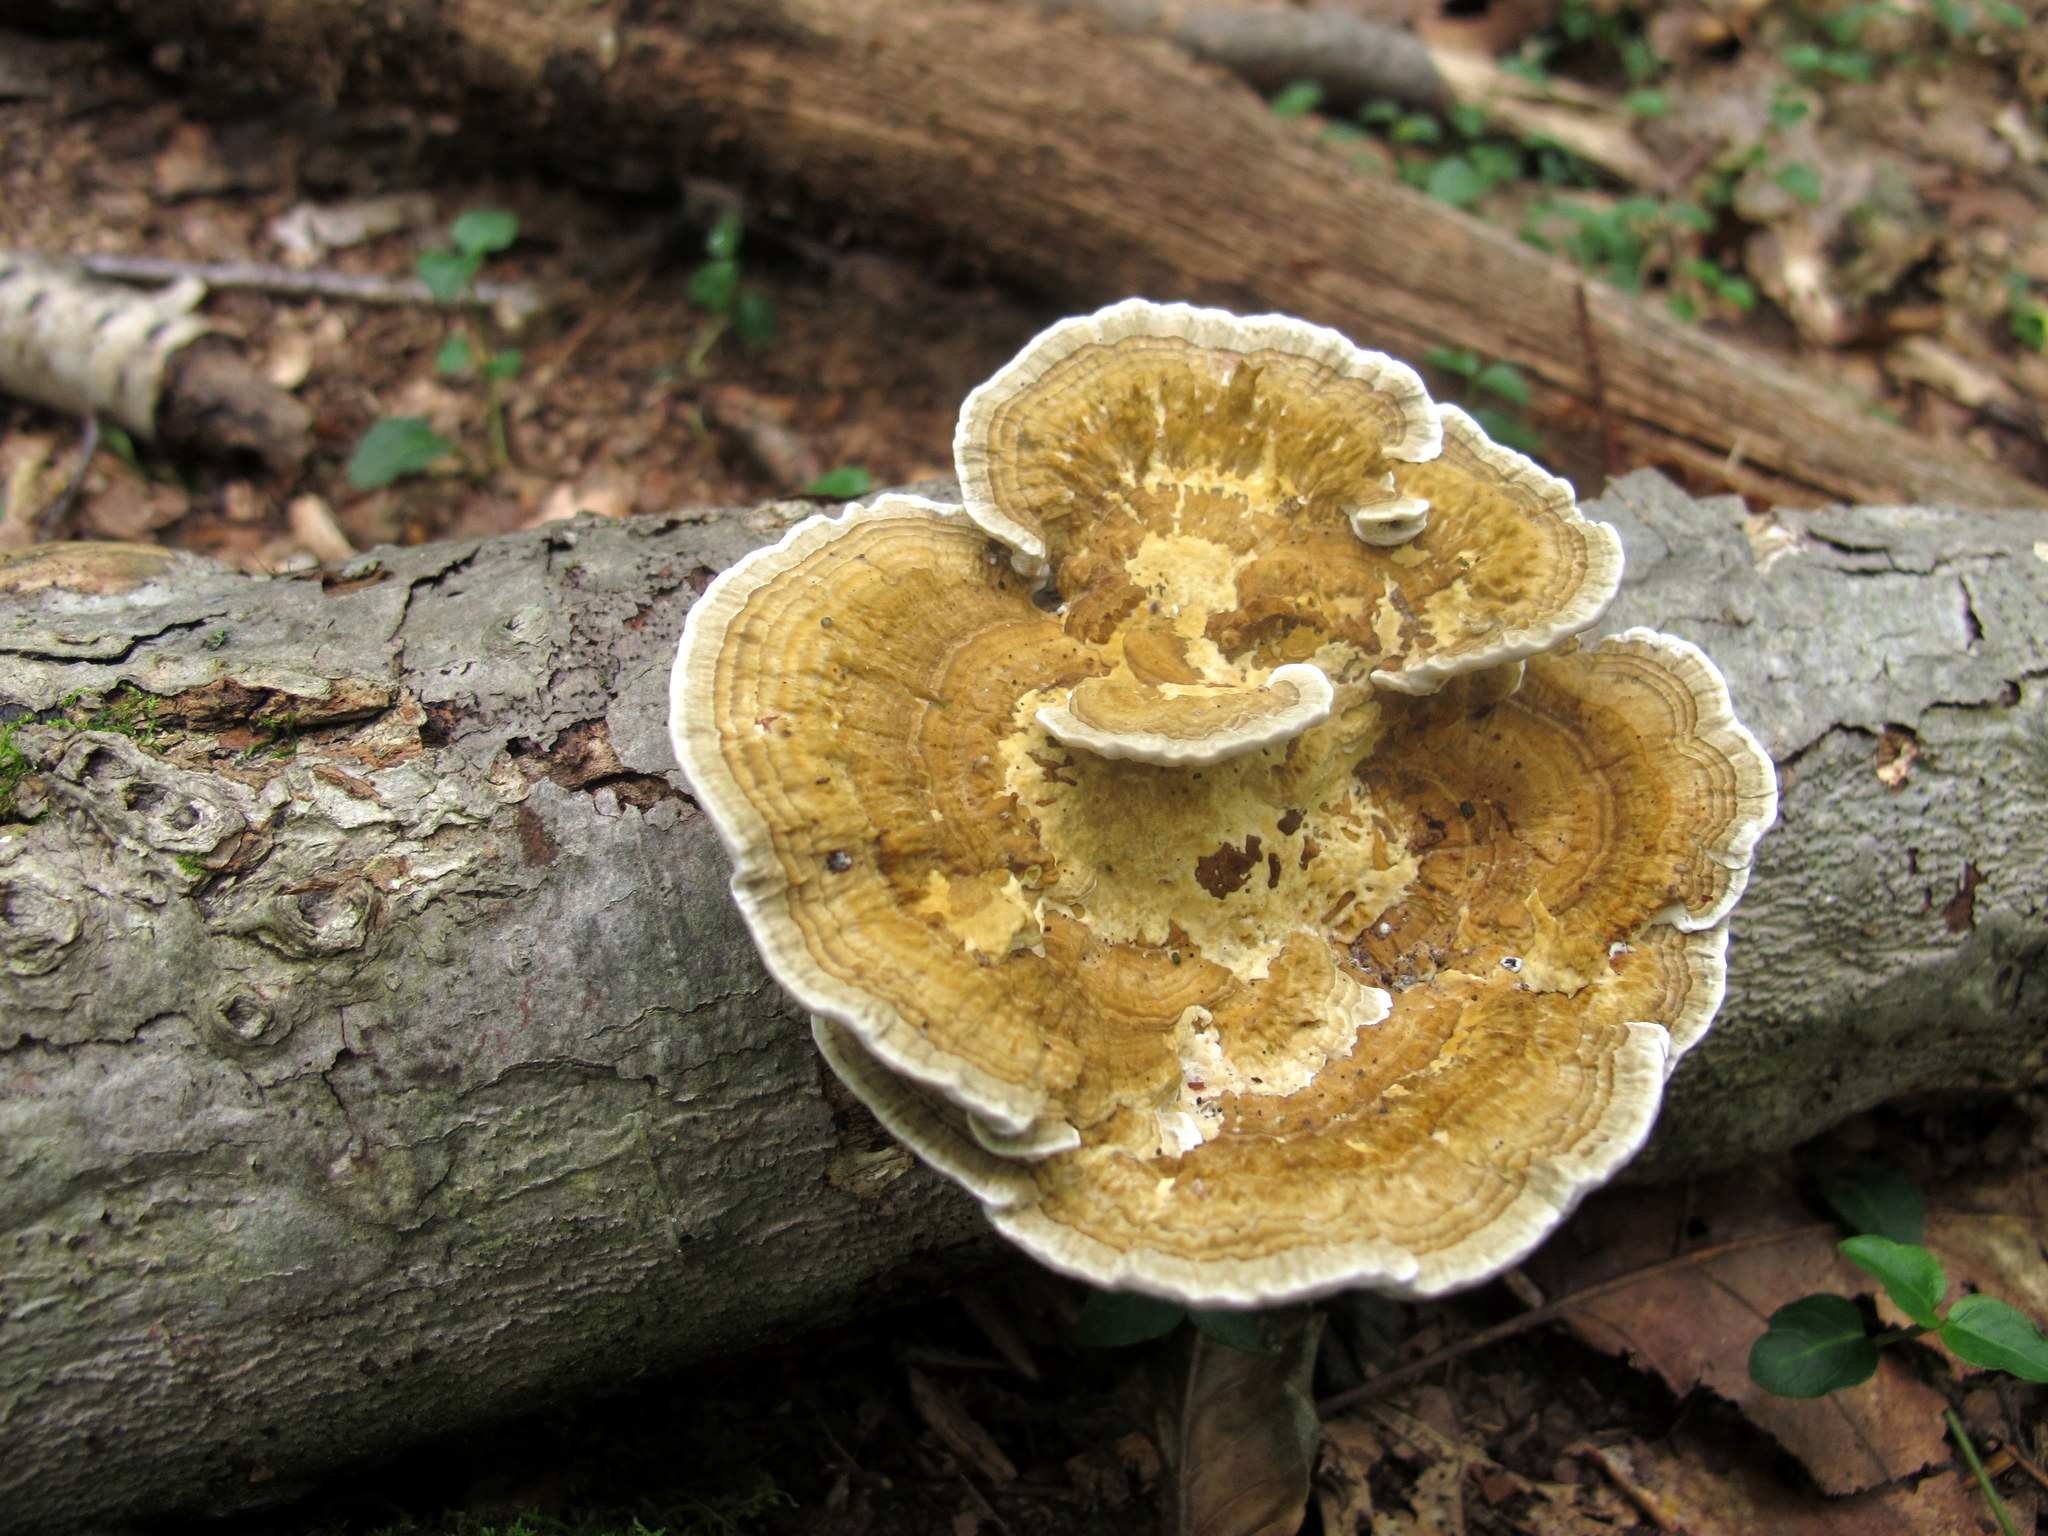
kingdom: Fungi
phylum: Basidiomycota
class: Agaricomycetes
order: Polyporales
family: Polyporaceae
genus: Daedaleopsis
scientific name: Daedaleopsis confragosa
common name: Blushing bracket
